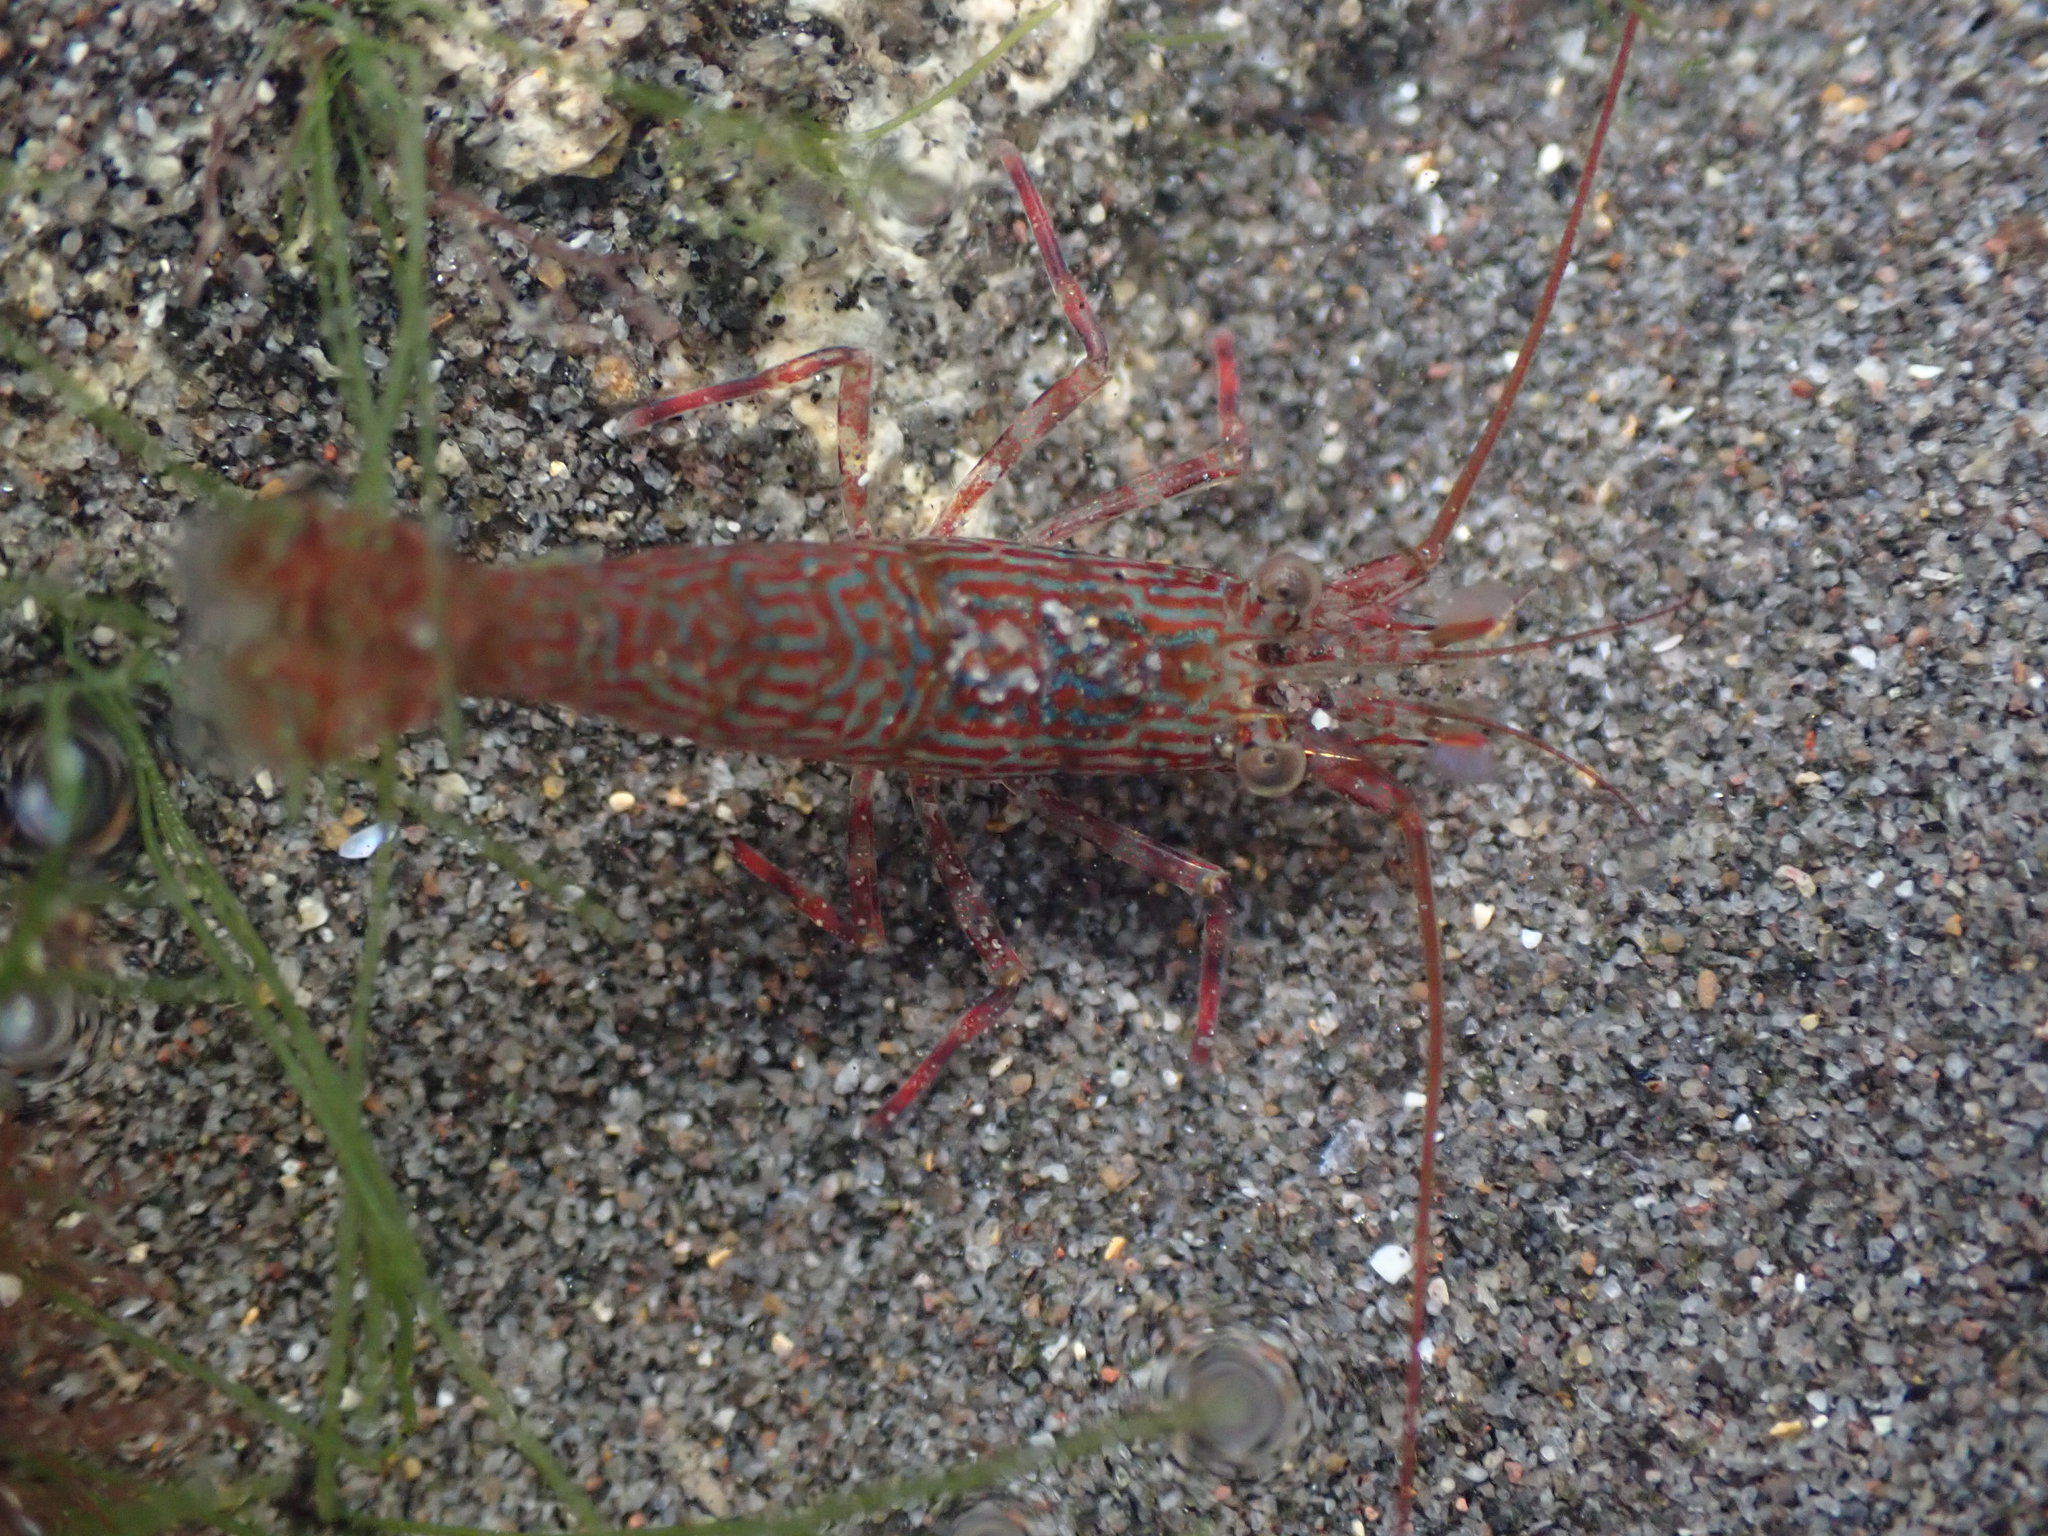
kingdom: Animalia
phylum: Arthropoda
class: Malacostraca
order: Decapoda
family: Hippolytidae
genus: Alope
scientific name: Alope spinifrons
